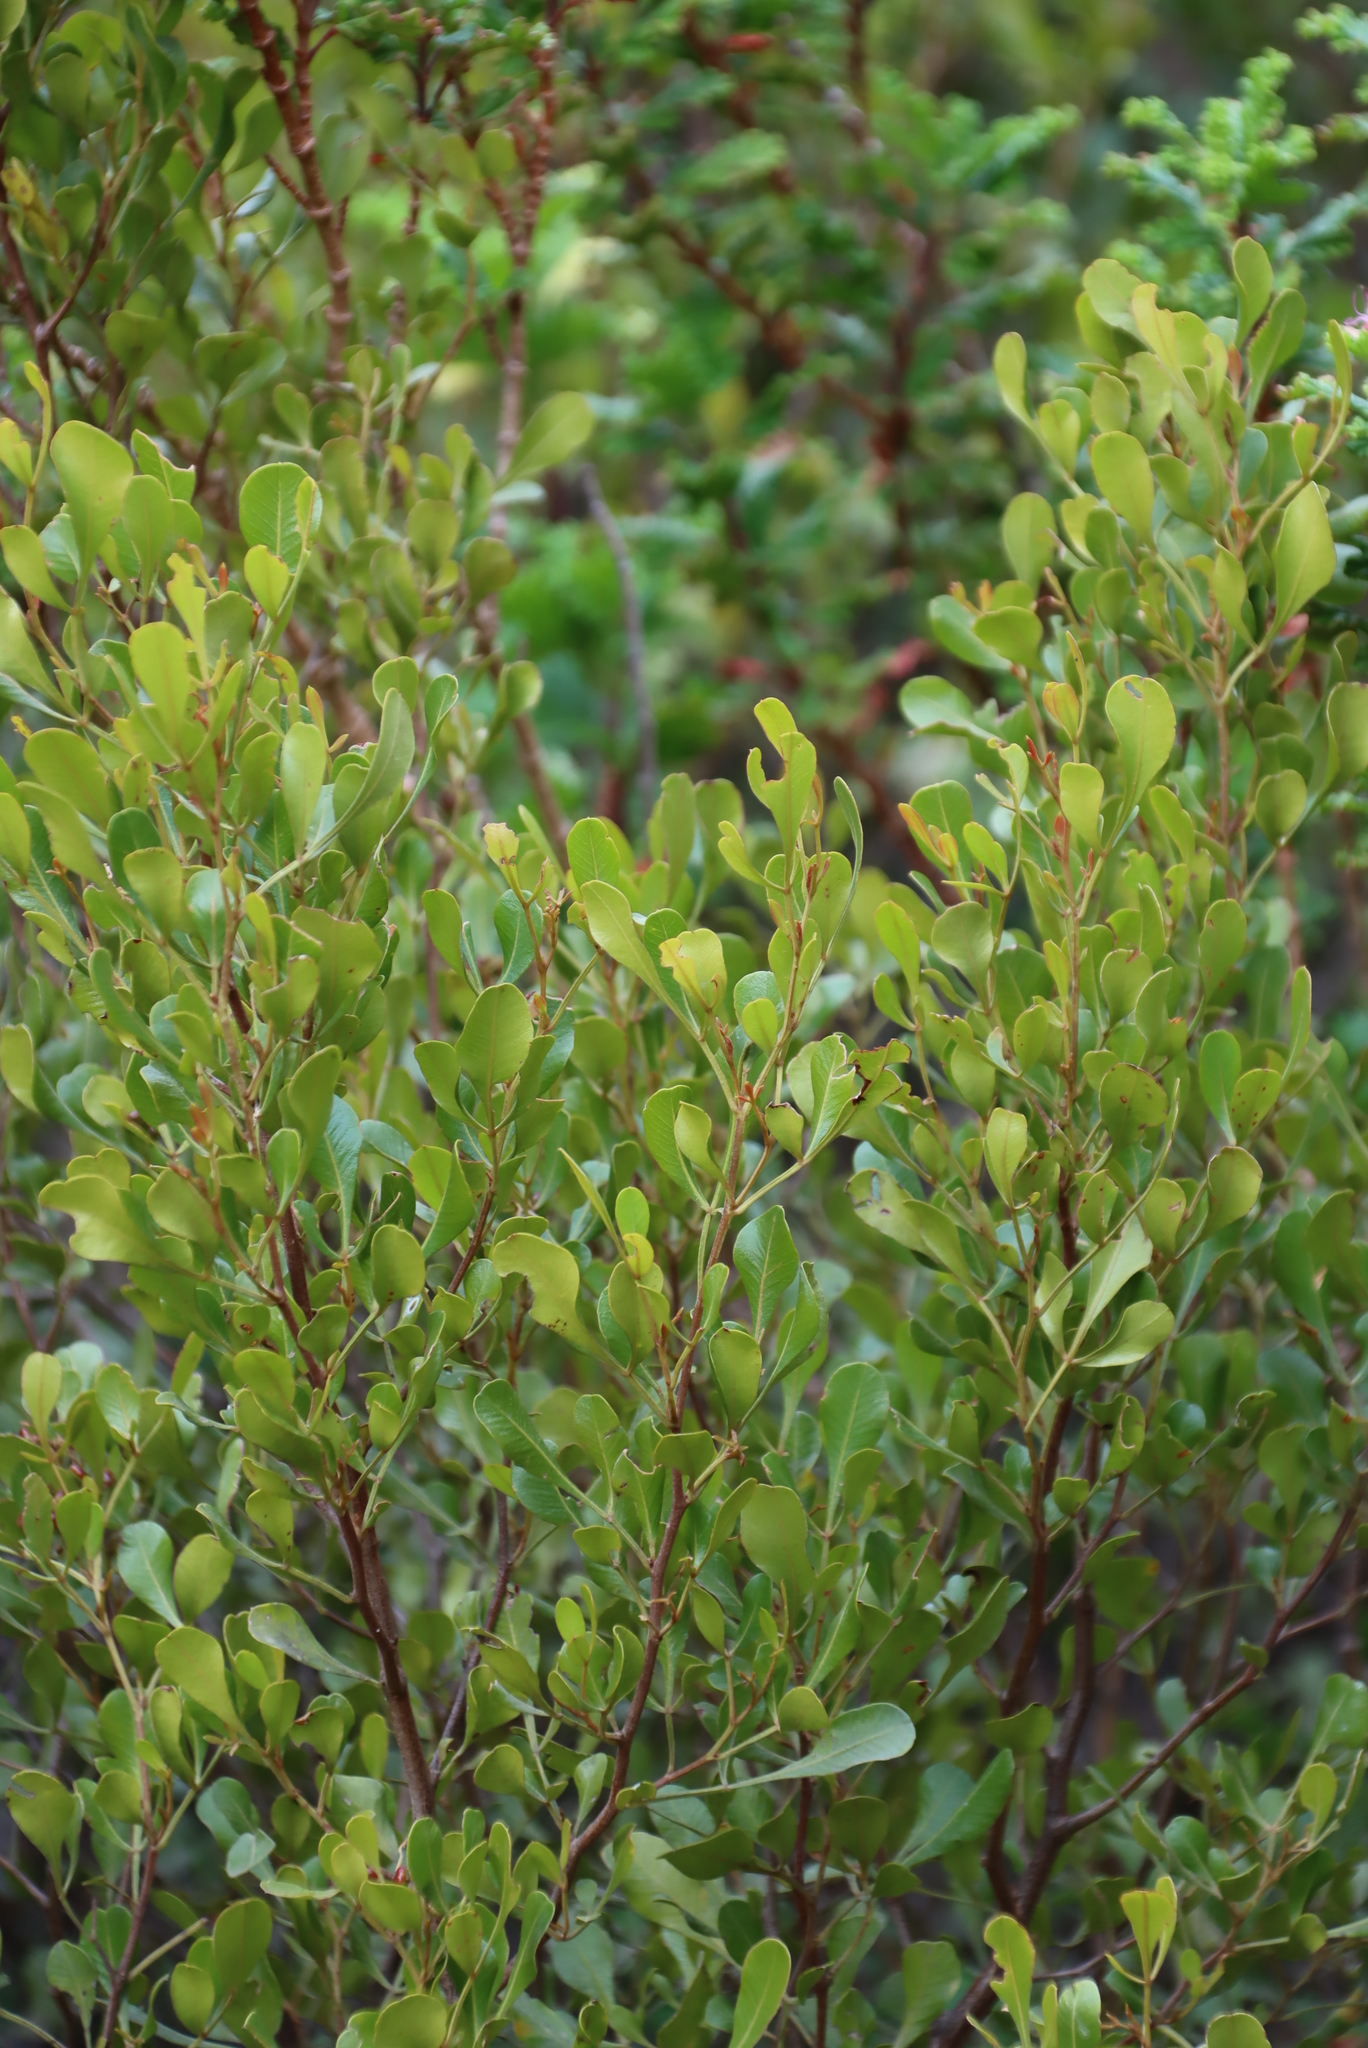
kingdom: Plantae
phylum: Tracheophyta
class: Magnoliopsida
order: Sapindales
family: Anacardiaceae
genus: Searsia
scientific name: Searsia pallens
